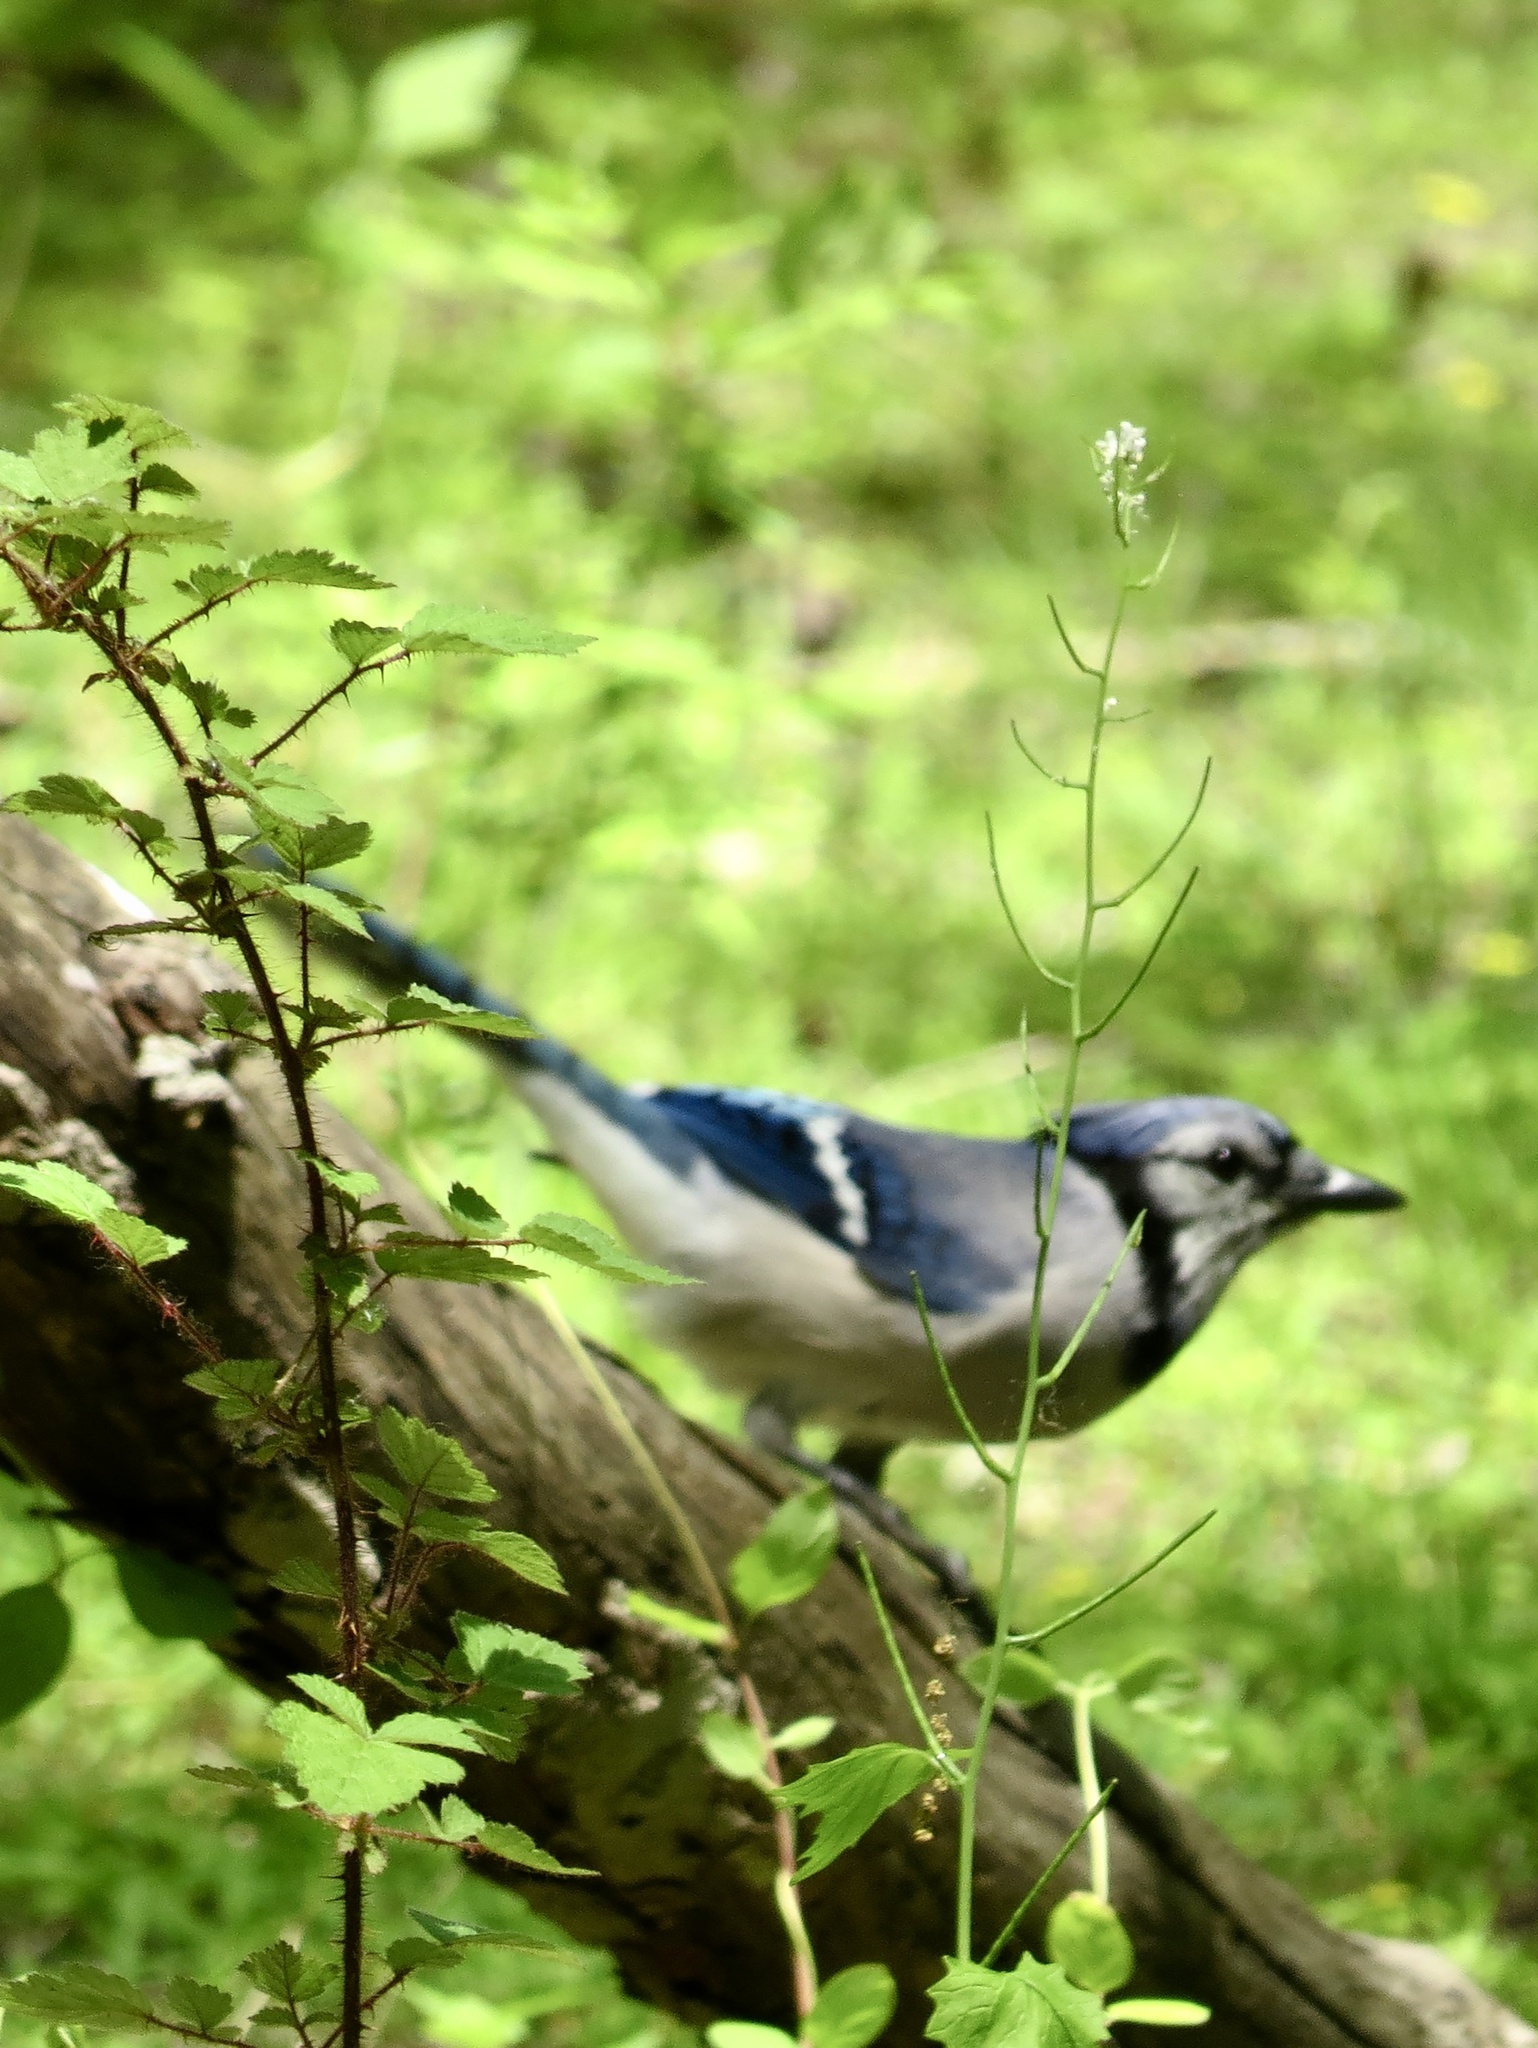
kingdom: Animalia
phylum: Chordata
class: Aves
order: Passeriformes
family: Corvidae
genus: Cyanocitta
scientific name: Cyanocitta cristata
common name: Blue jay
